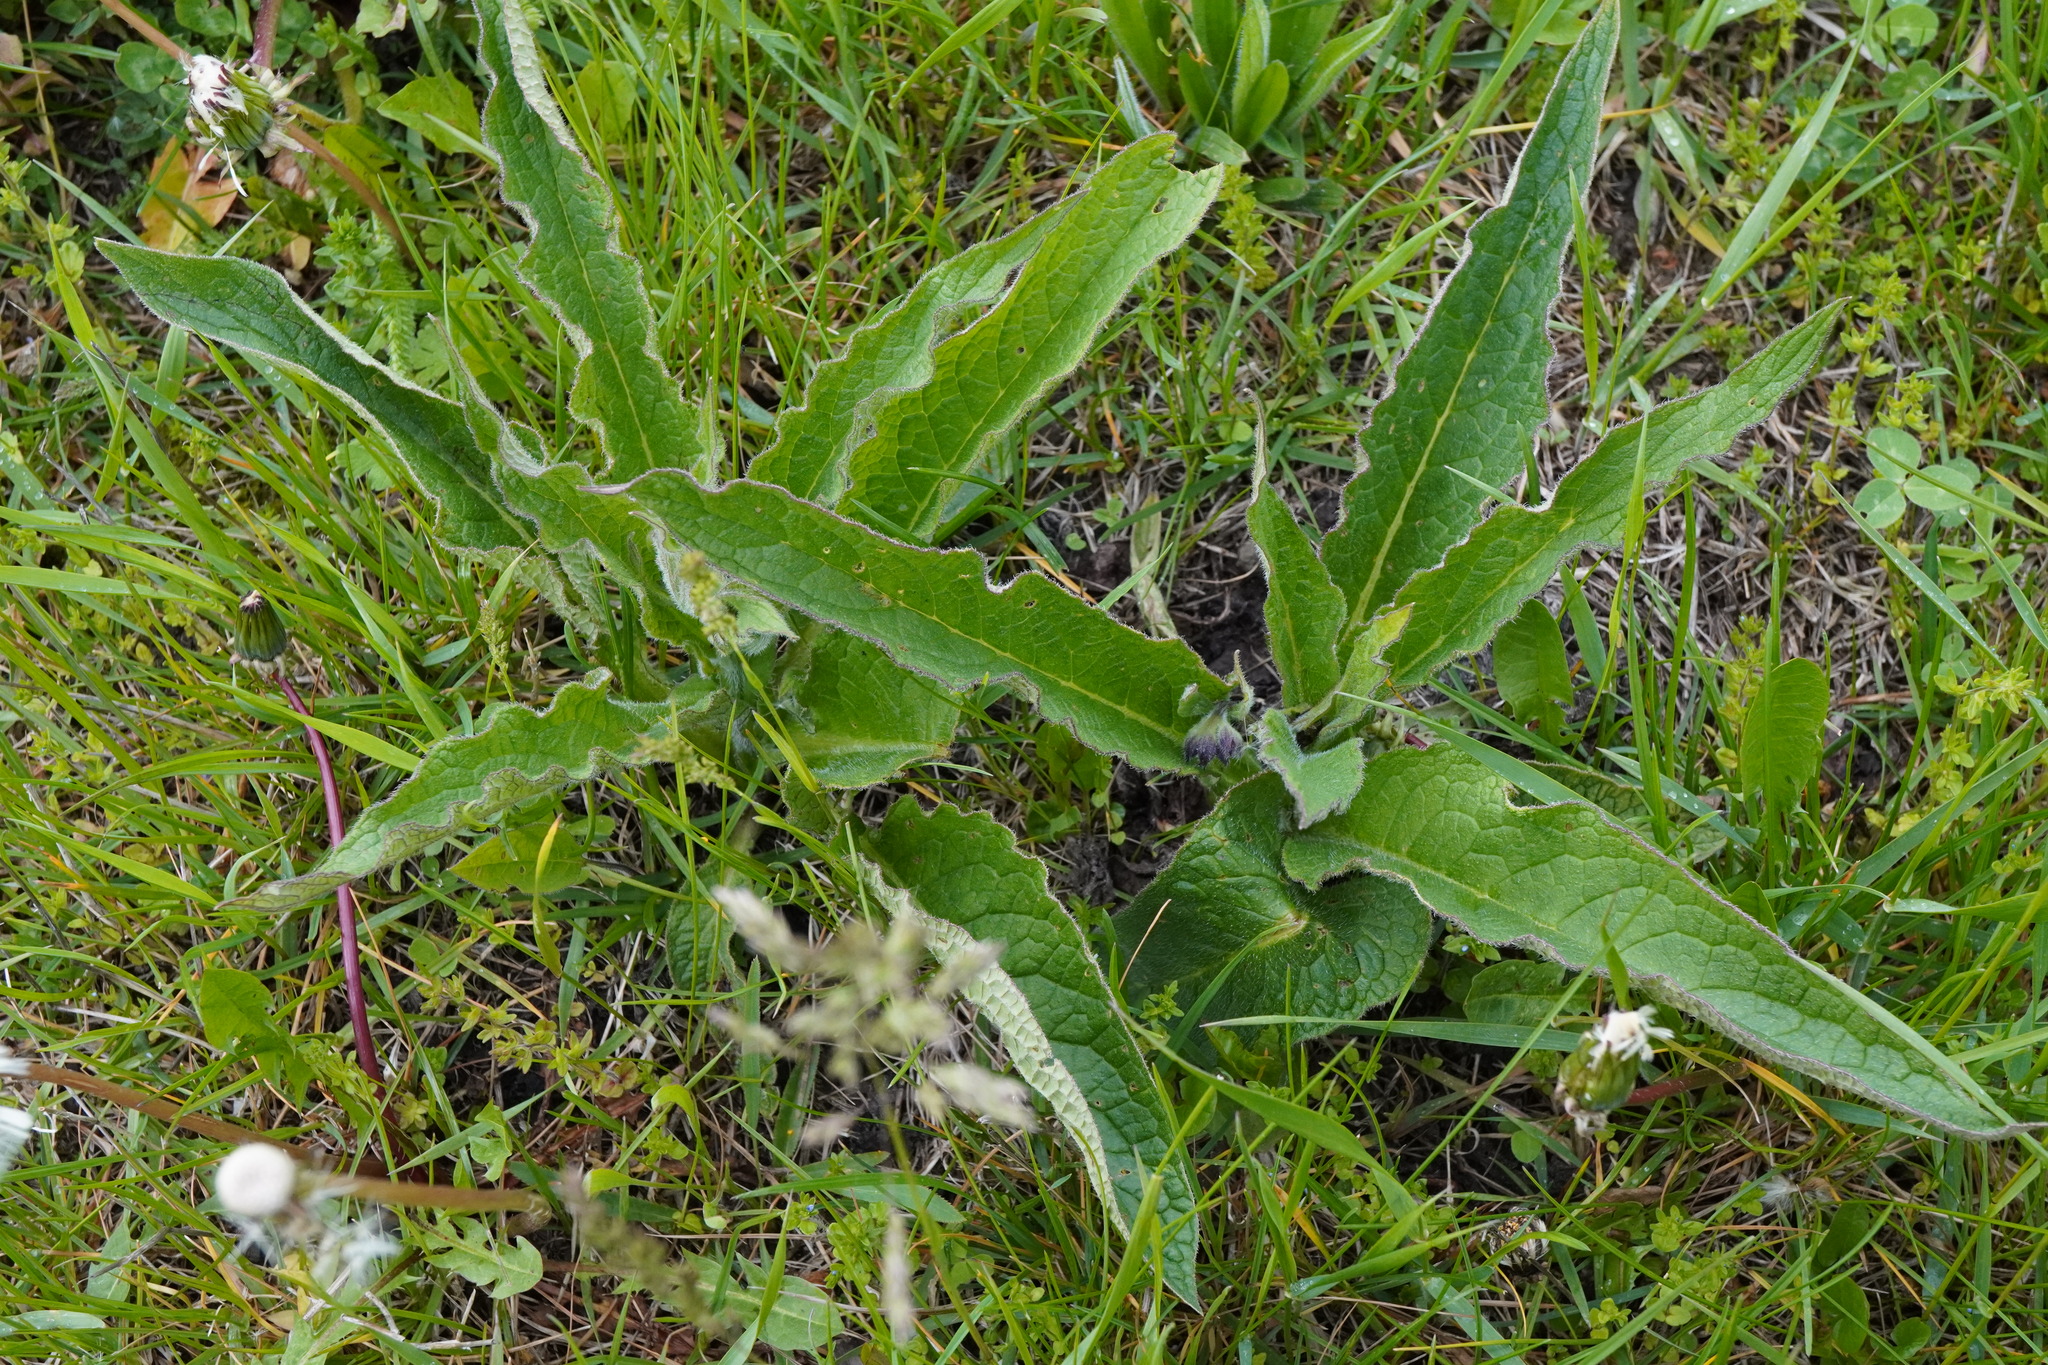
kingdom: Plantae
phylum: Tracheophyta
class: Magnoliopsida
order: Boraginales
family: Boraginaceae
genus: Symphytum
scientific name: Symphytum officinale
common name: Common comfrey
